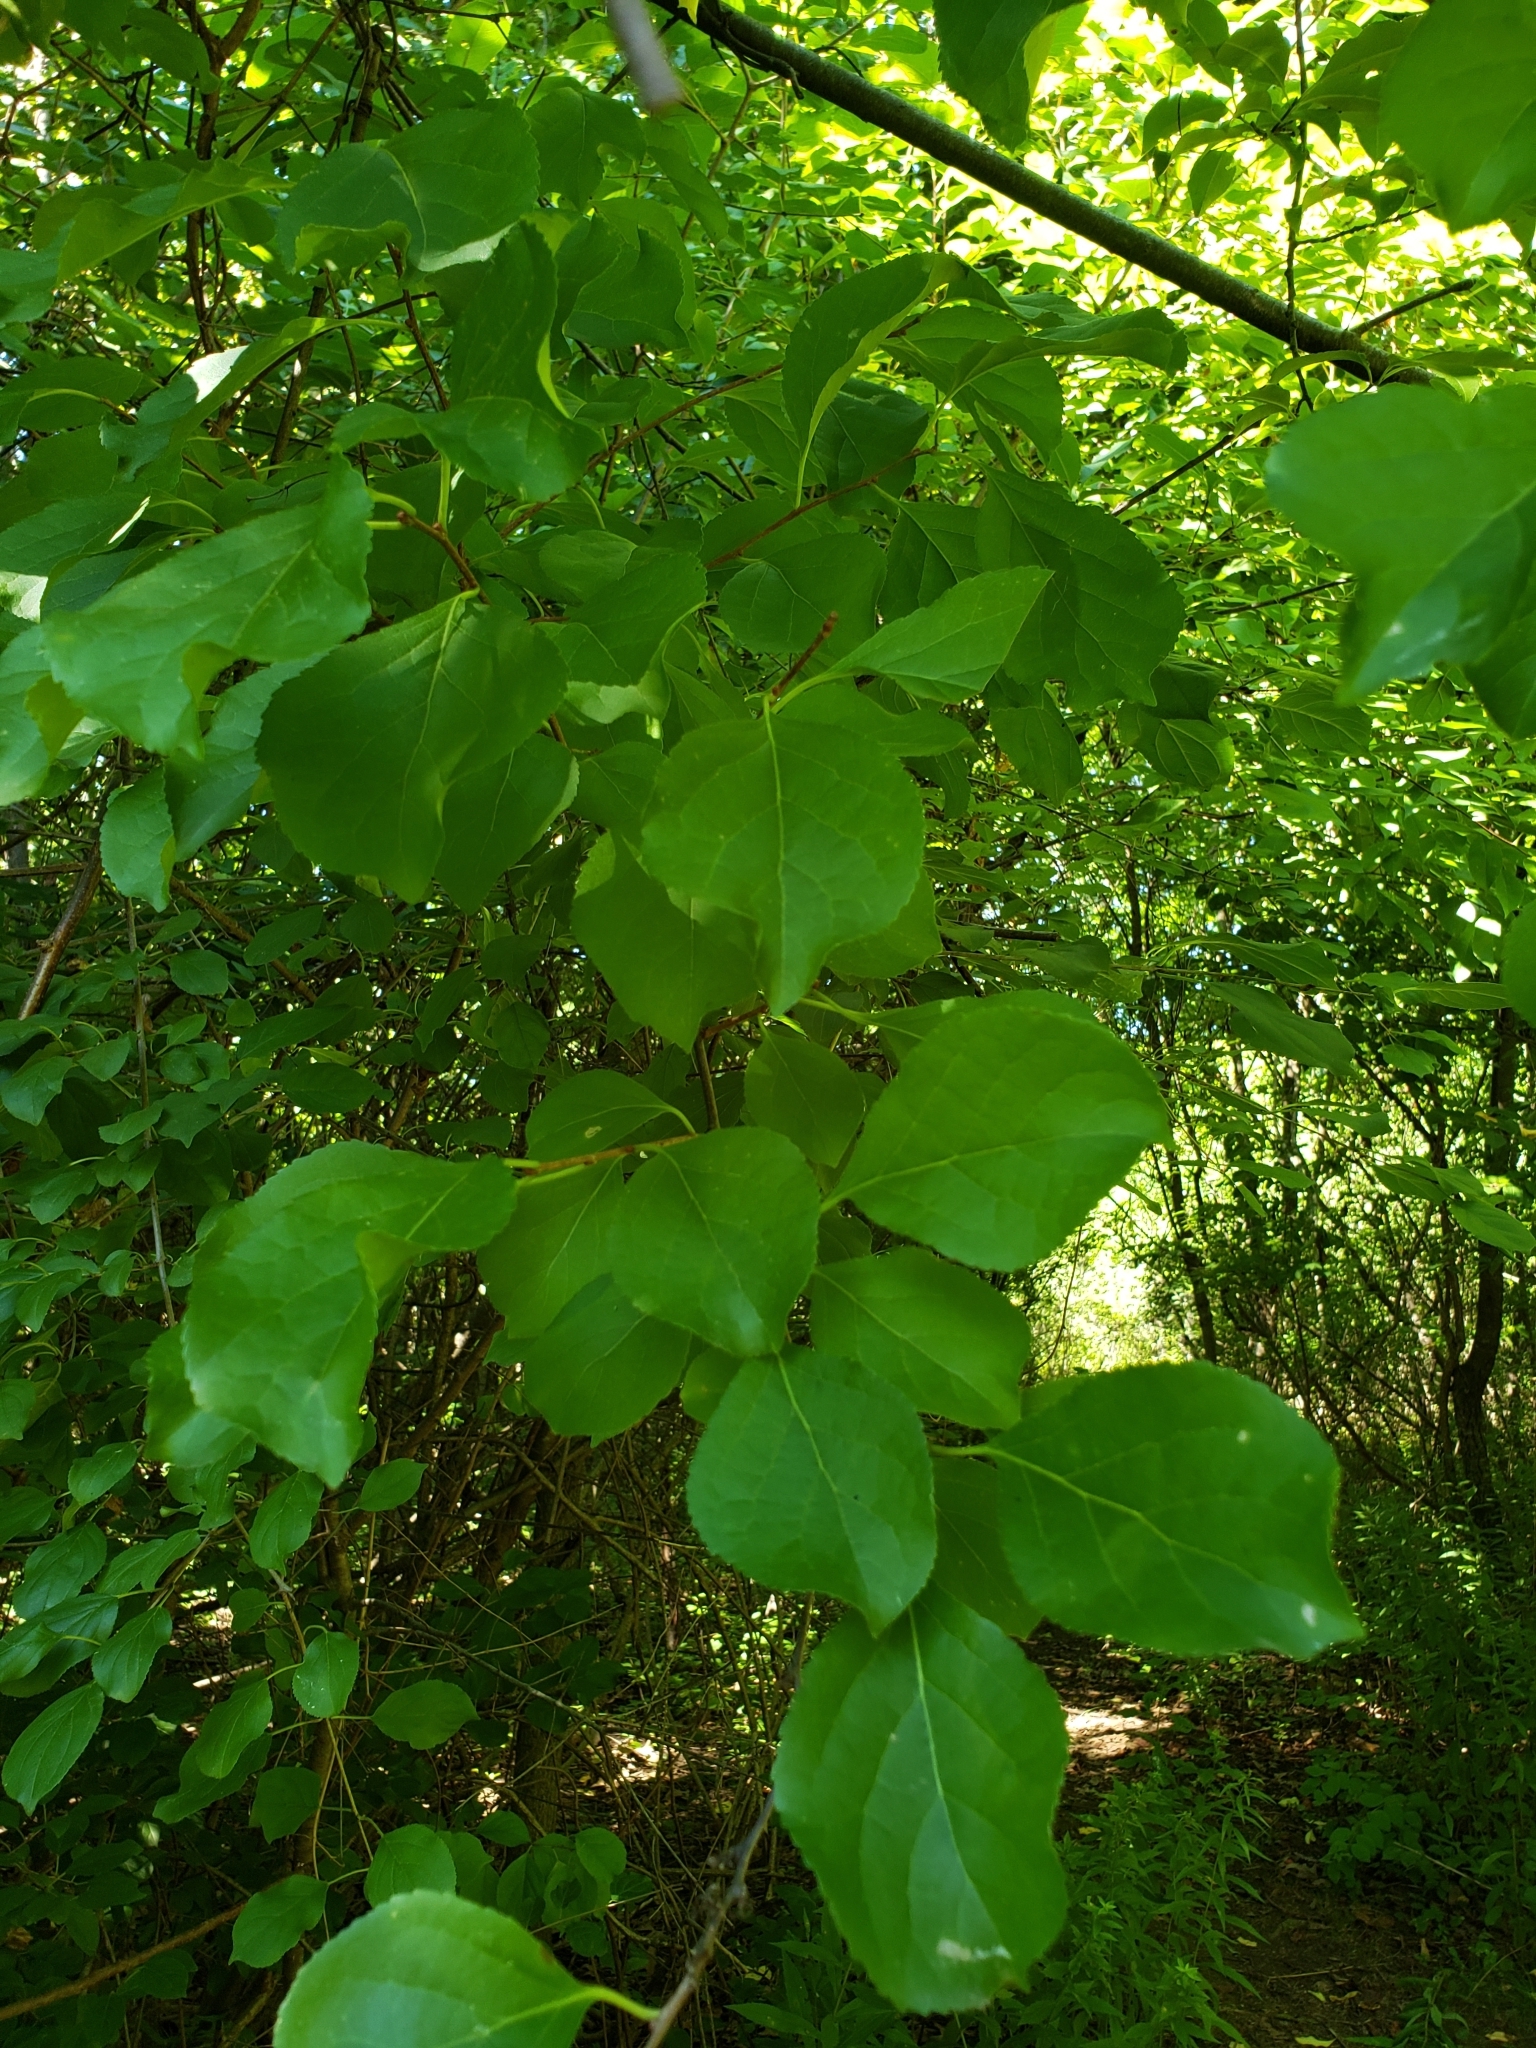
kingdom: Plantae
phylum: Tracheophyta
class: Magnoliopsida
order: Celastrales
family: Celastraceae
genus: Celastrus
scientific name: Celastrus orbiculatus
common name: Oriental bittersweet
